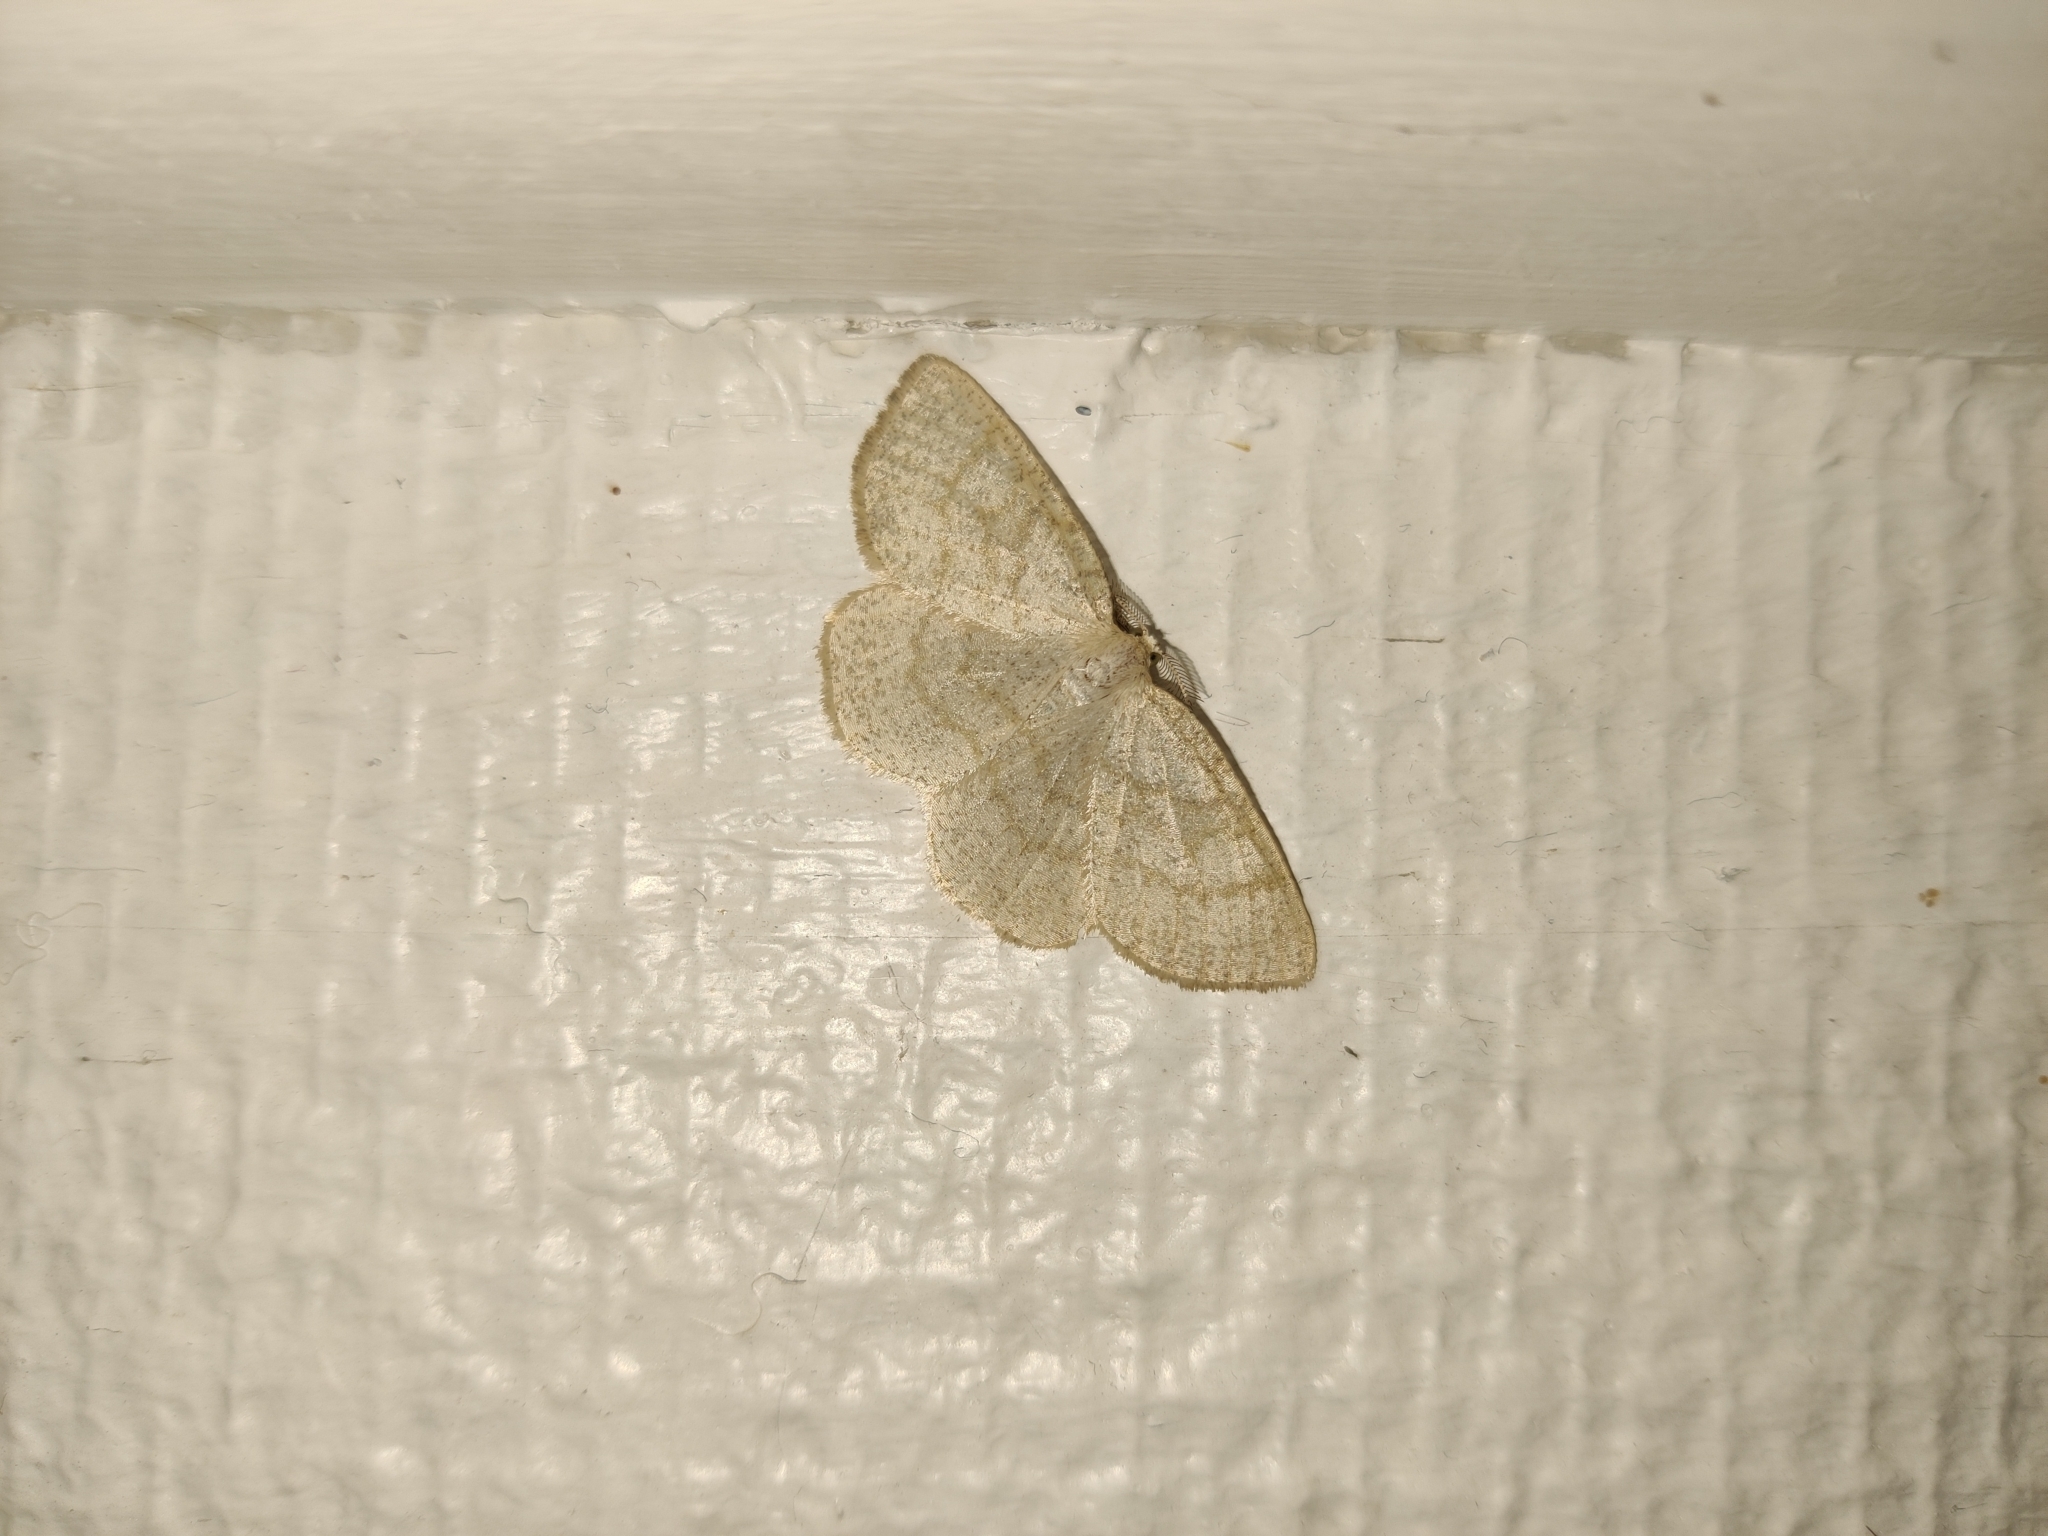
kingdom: Animalia
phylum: Arthropoda
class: Insecta
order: Lepidoptera
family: Geometridae
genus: Cabera
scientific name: Cabera exanthemata
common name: Common wave
